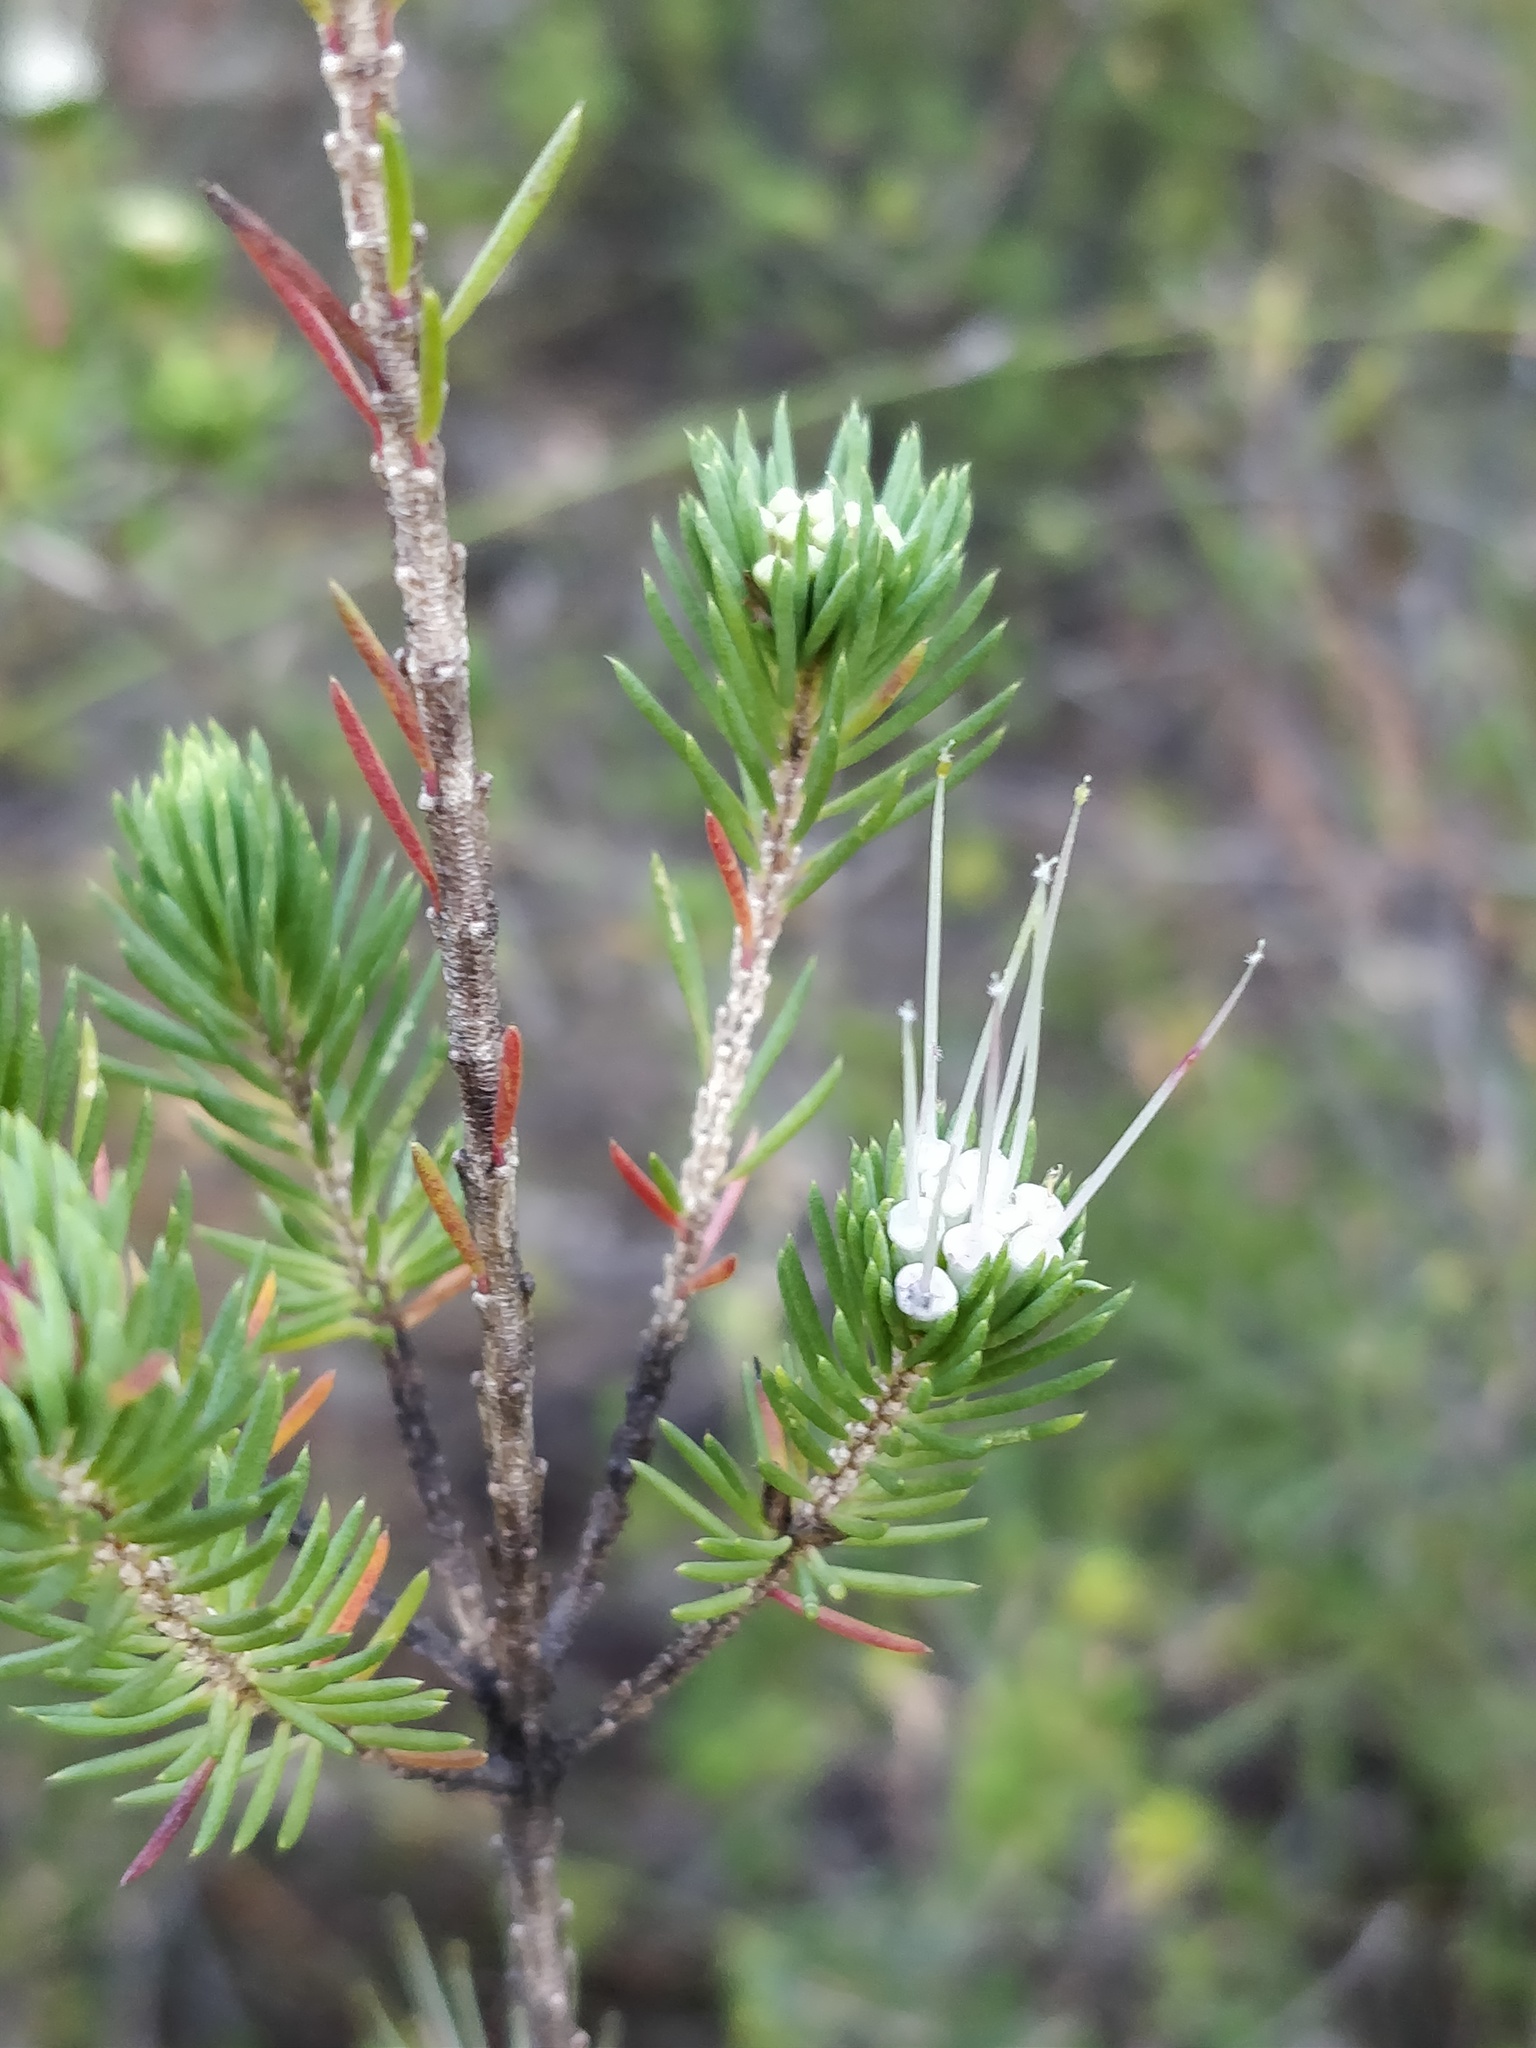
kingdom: Plantae
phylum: Tracheophyta
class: Magnoliopsida
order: Myrtales
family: Myrtaceae
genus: Darwinia
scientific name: Darwinia fascicularis
